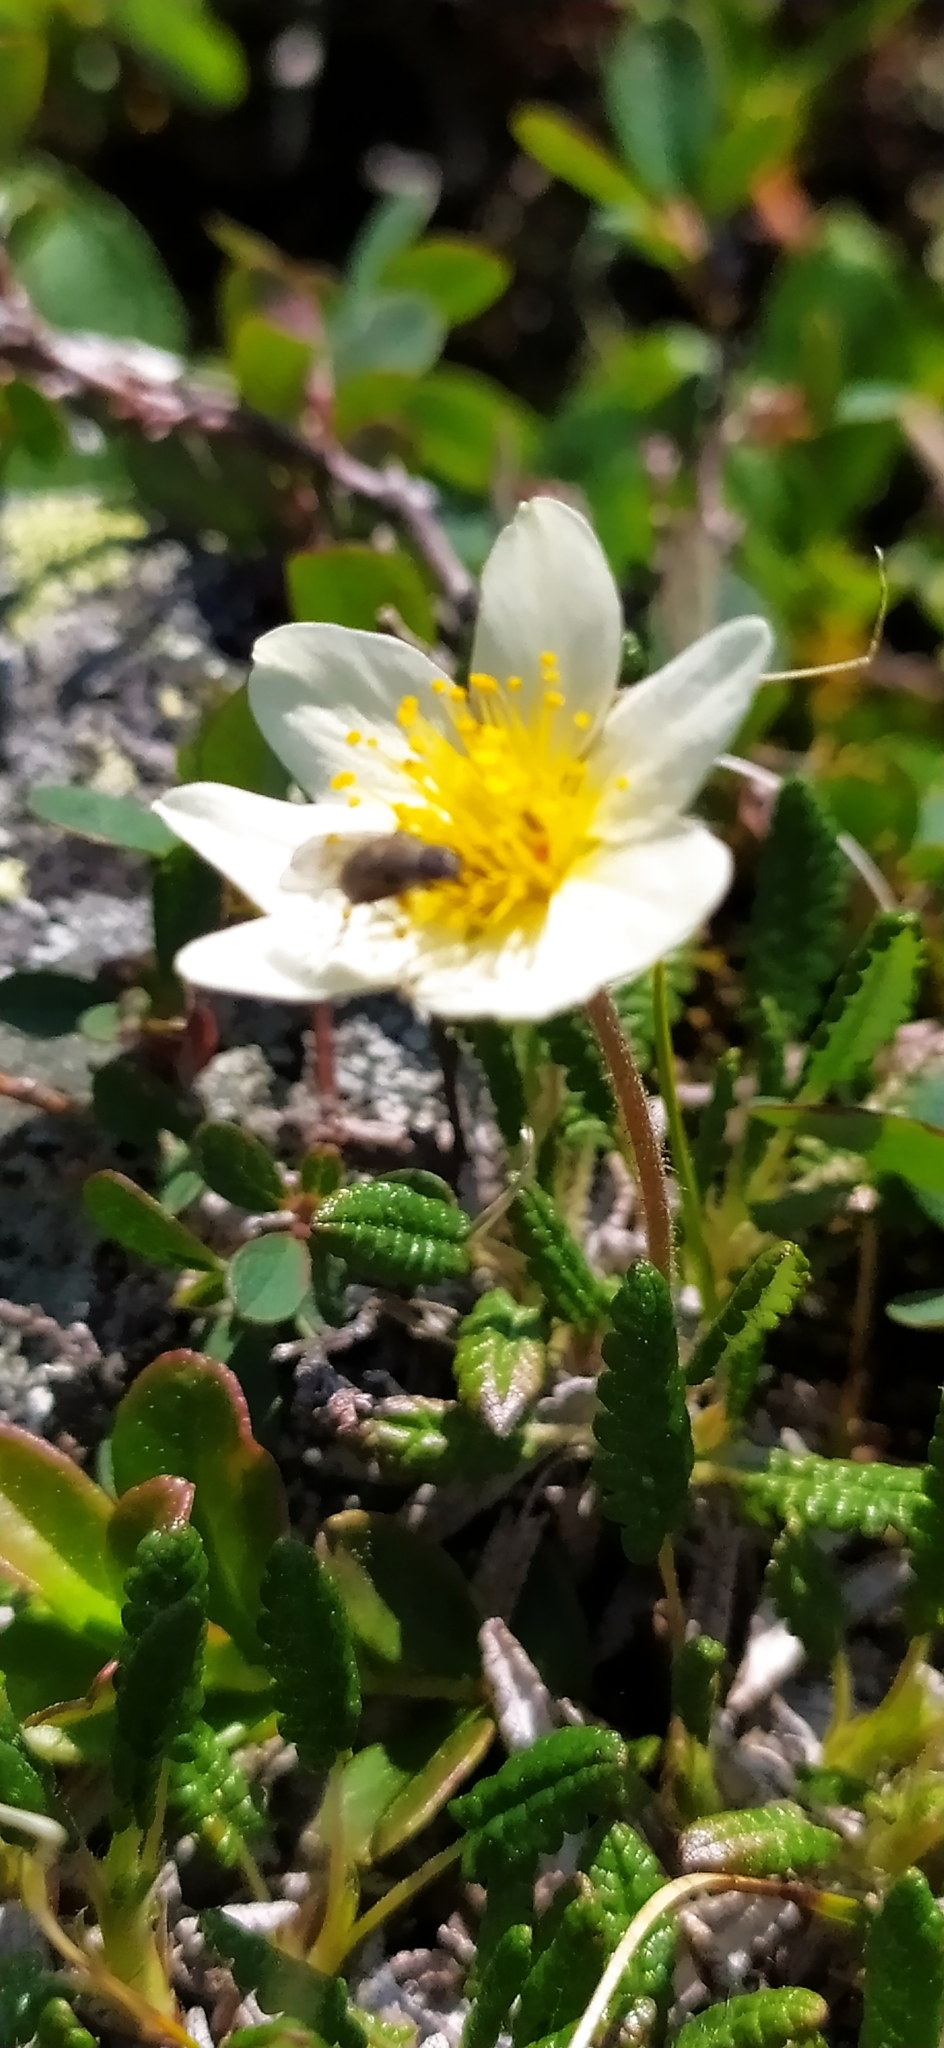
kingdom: Plantae
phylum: Tracheophyta
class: Magnoliopsida
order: Rosales
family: Rosaceae
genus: Dryas
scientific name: Dryas octopetala
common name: Eight-petal mountain-avens
